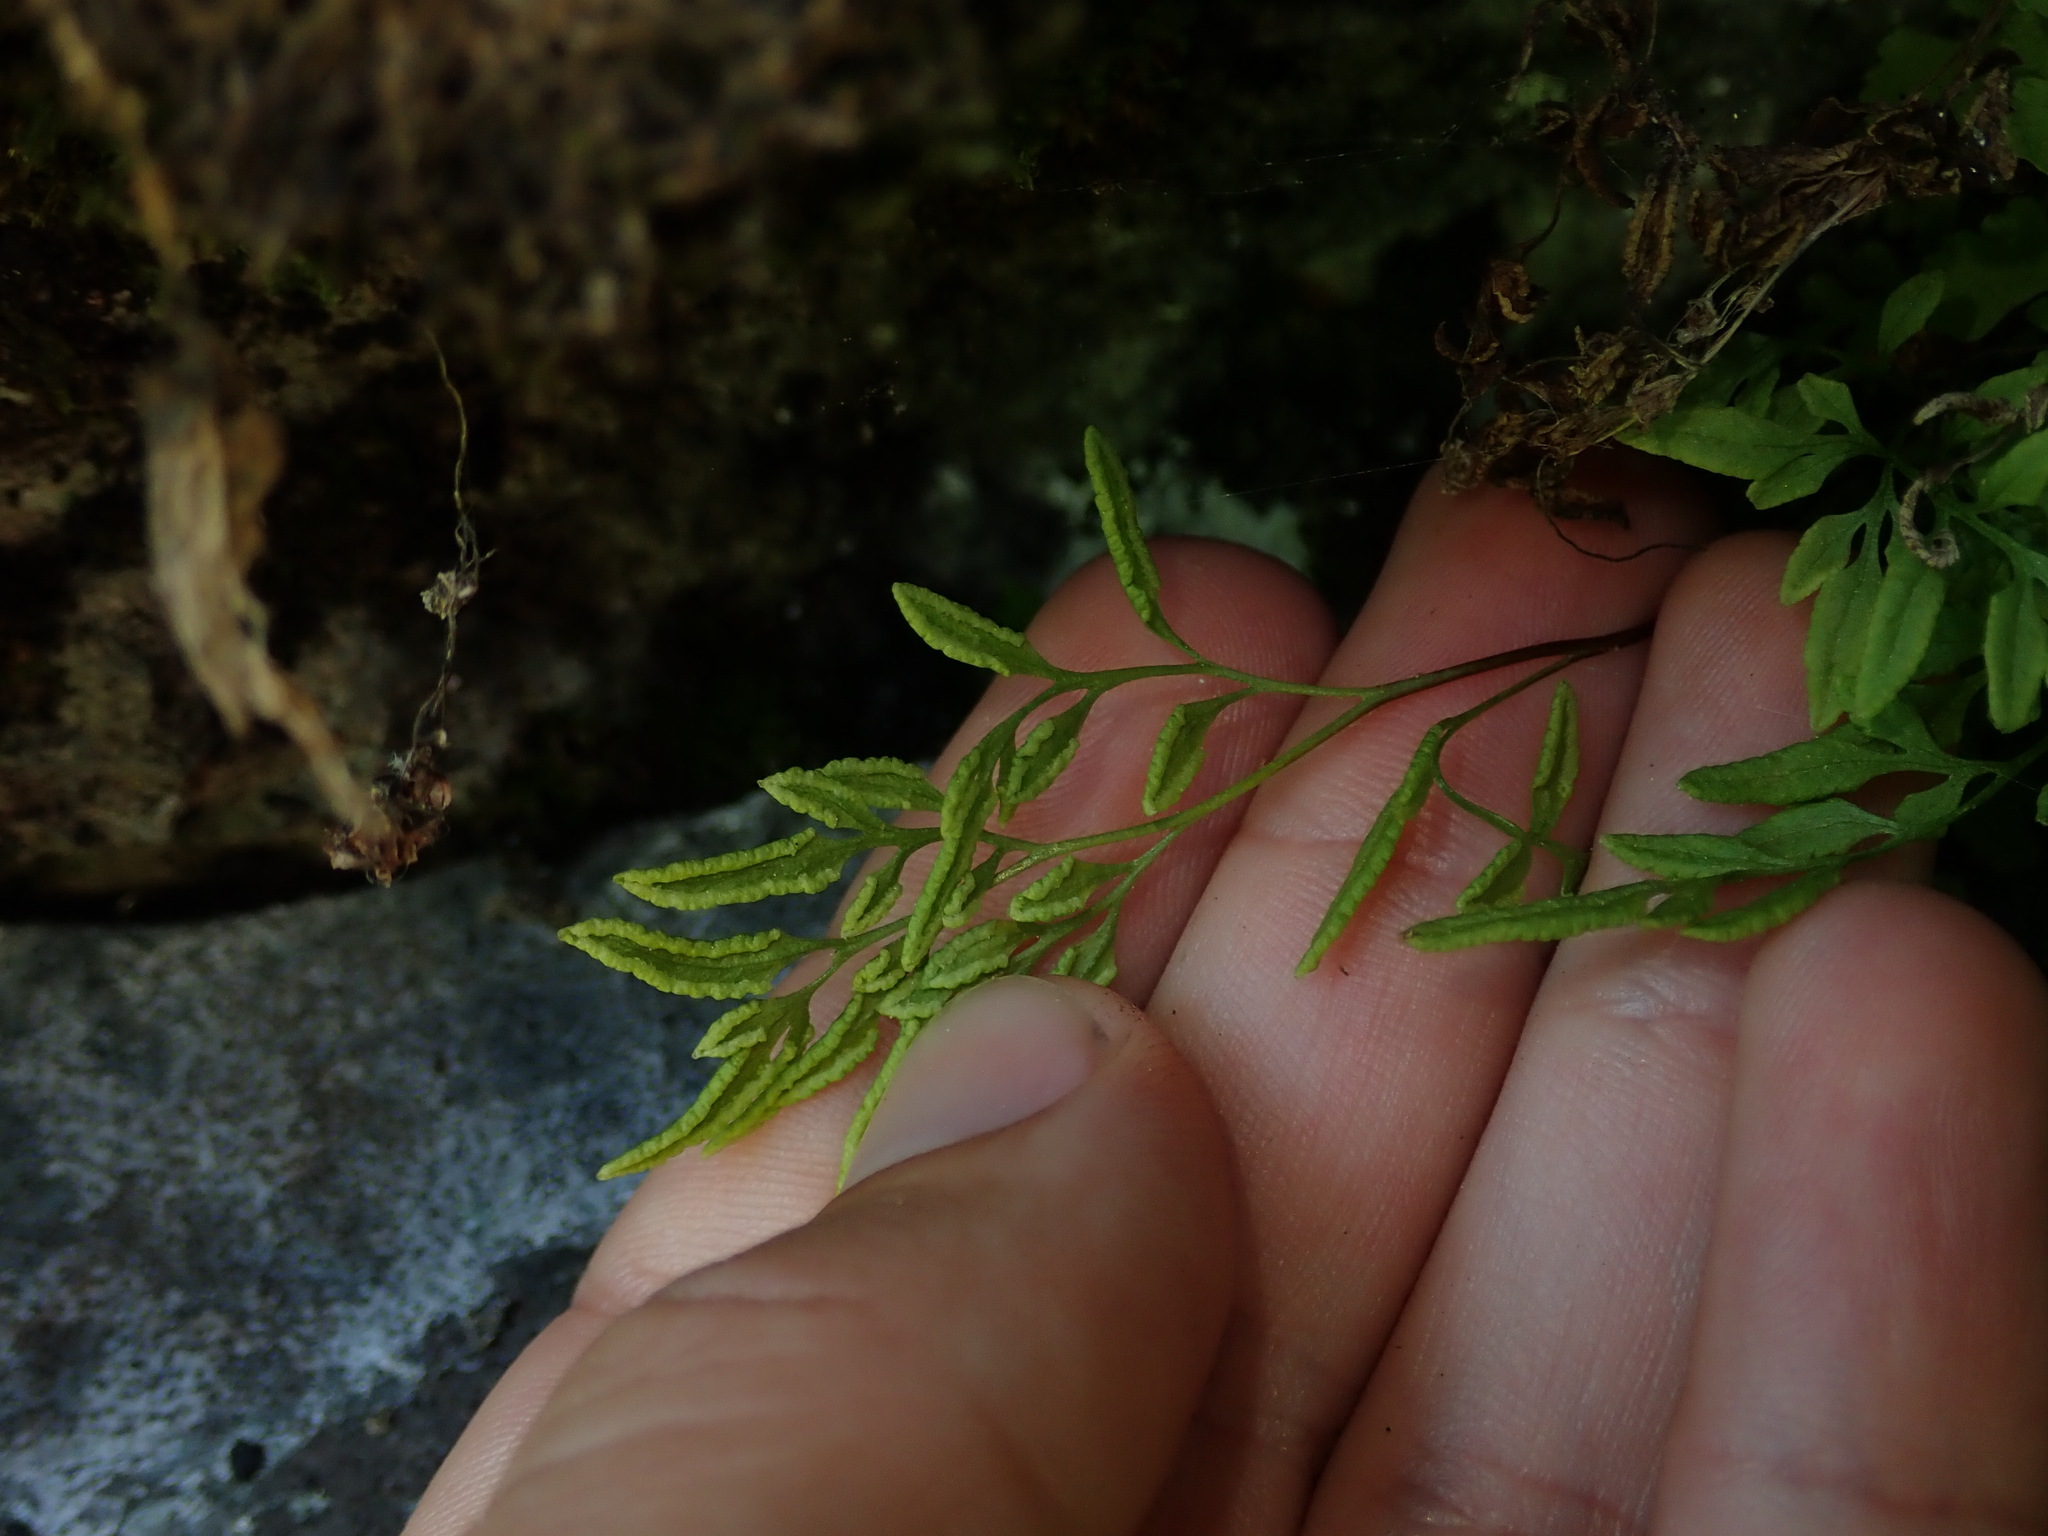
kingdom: Plantae
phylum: Tracheophyta
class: Polypodiopsida
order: Polypodiales
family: Pteridaceae
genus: Cryptogramma
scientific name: Cryptogramma stelleri
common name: Cliff-brake
